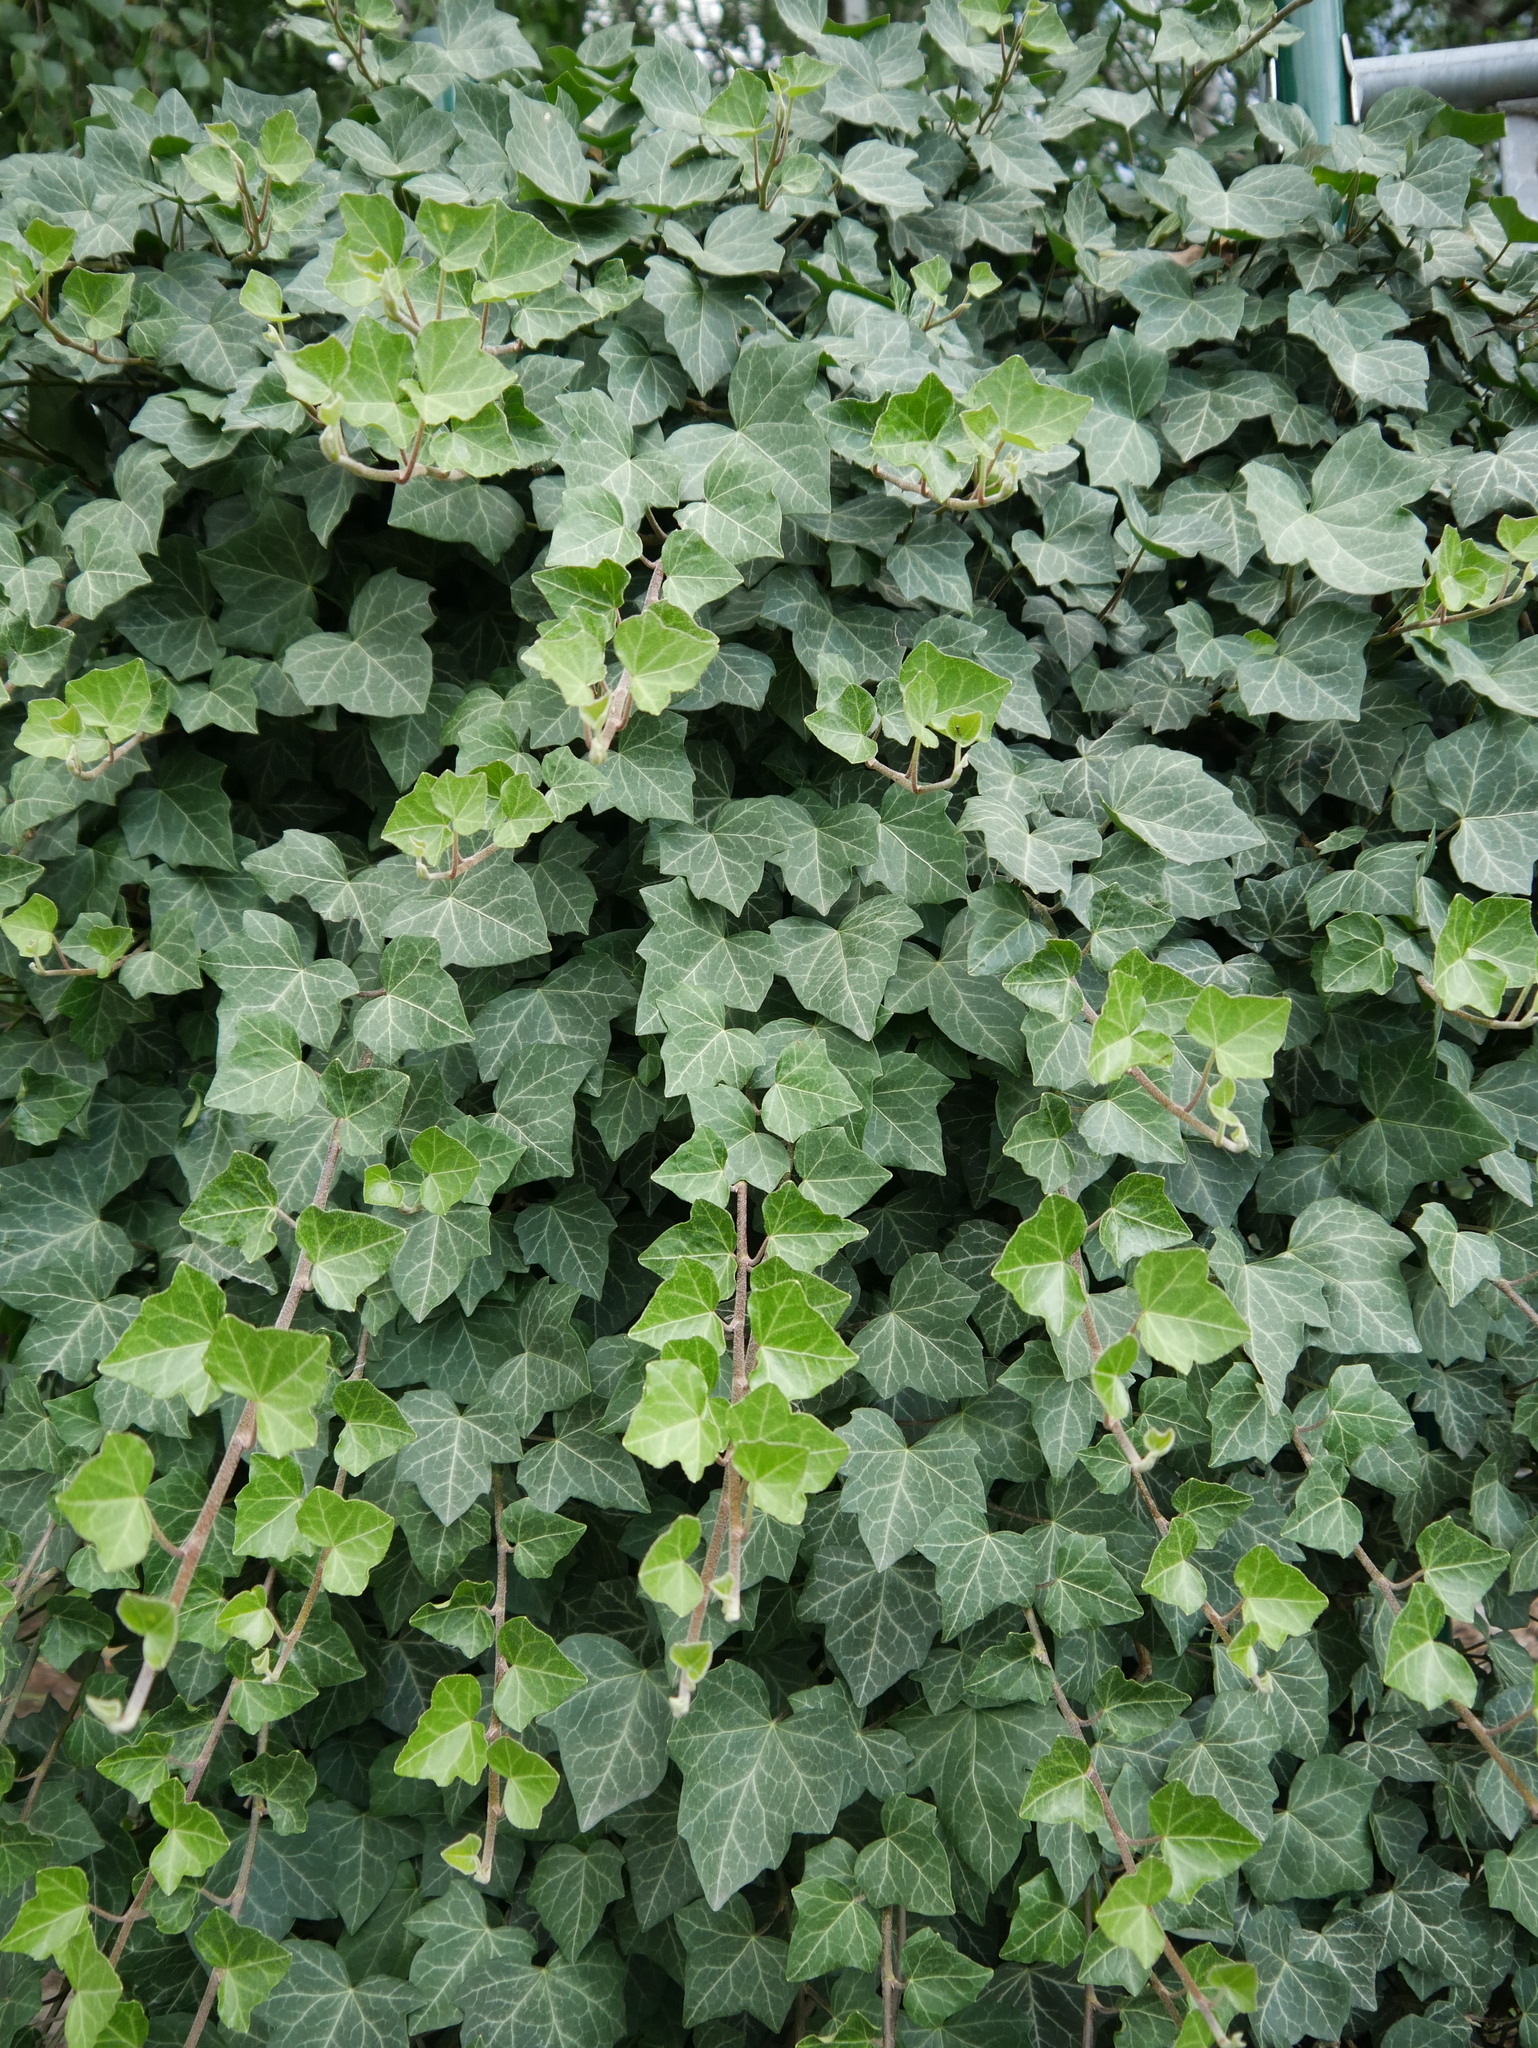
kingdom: Plantae
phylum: Tracheophyta
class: Magnoliopsida
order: Apiales
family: Araliaceae
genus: Hedera
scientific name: Hedera helix
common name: Ivy
